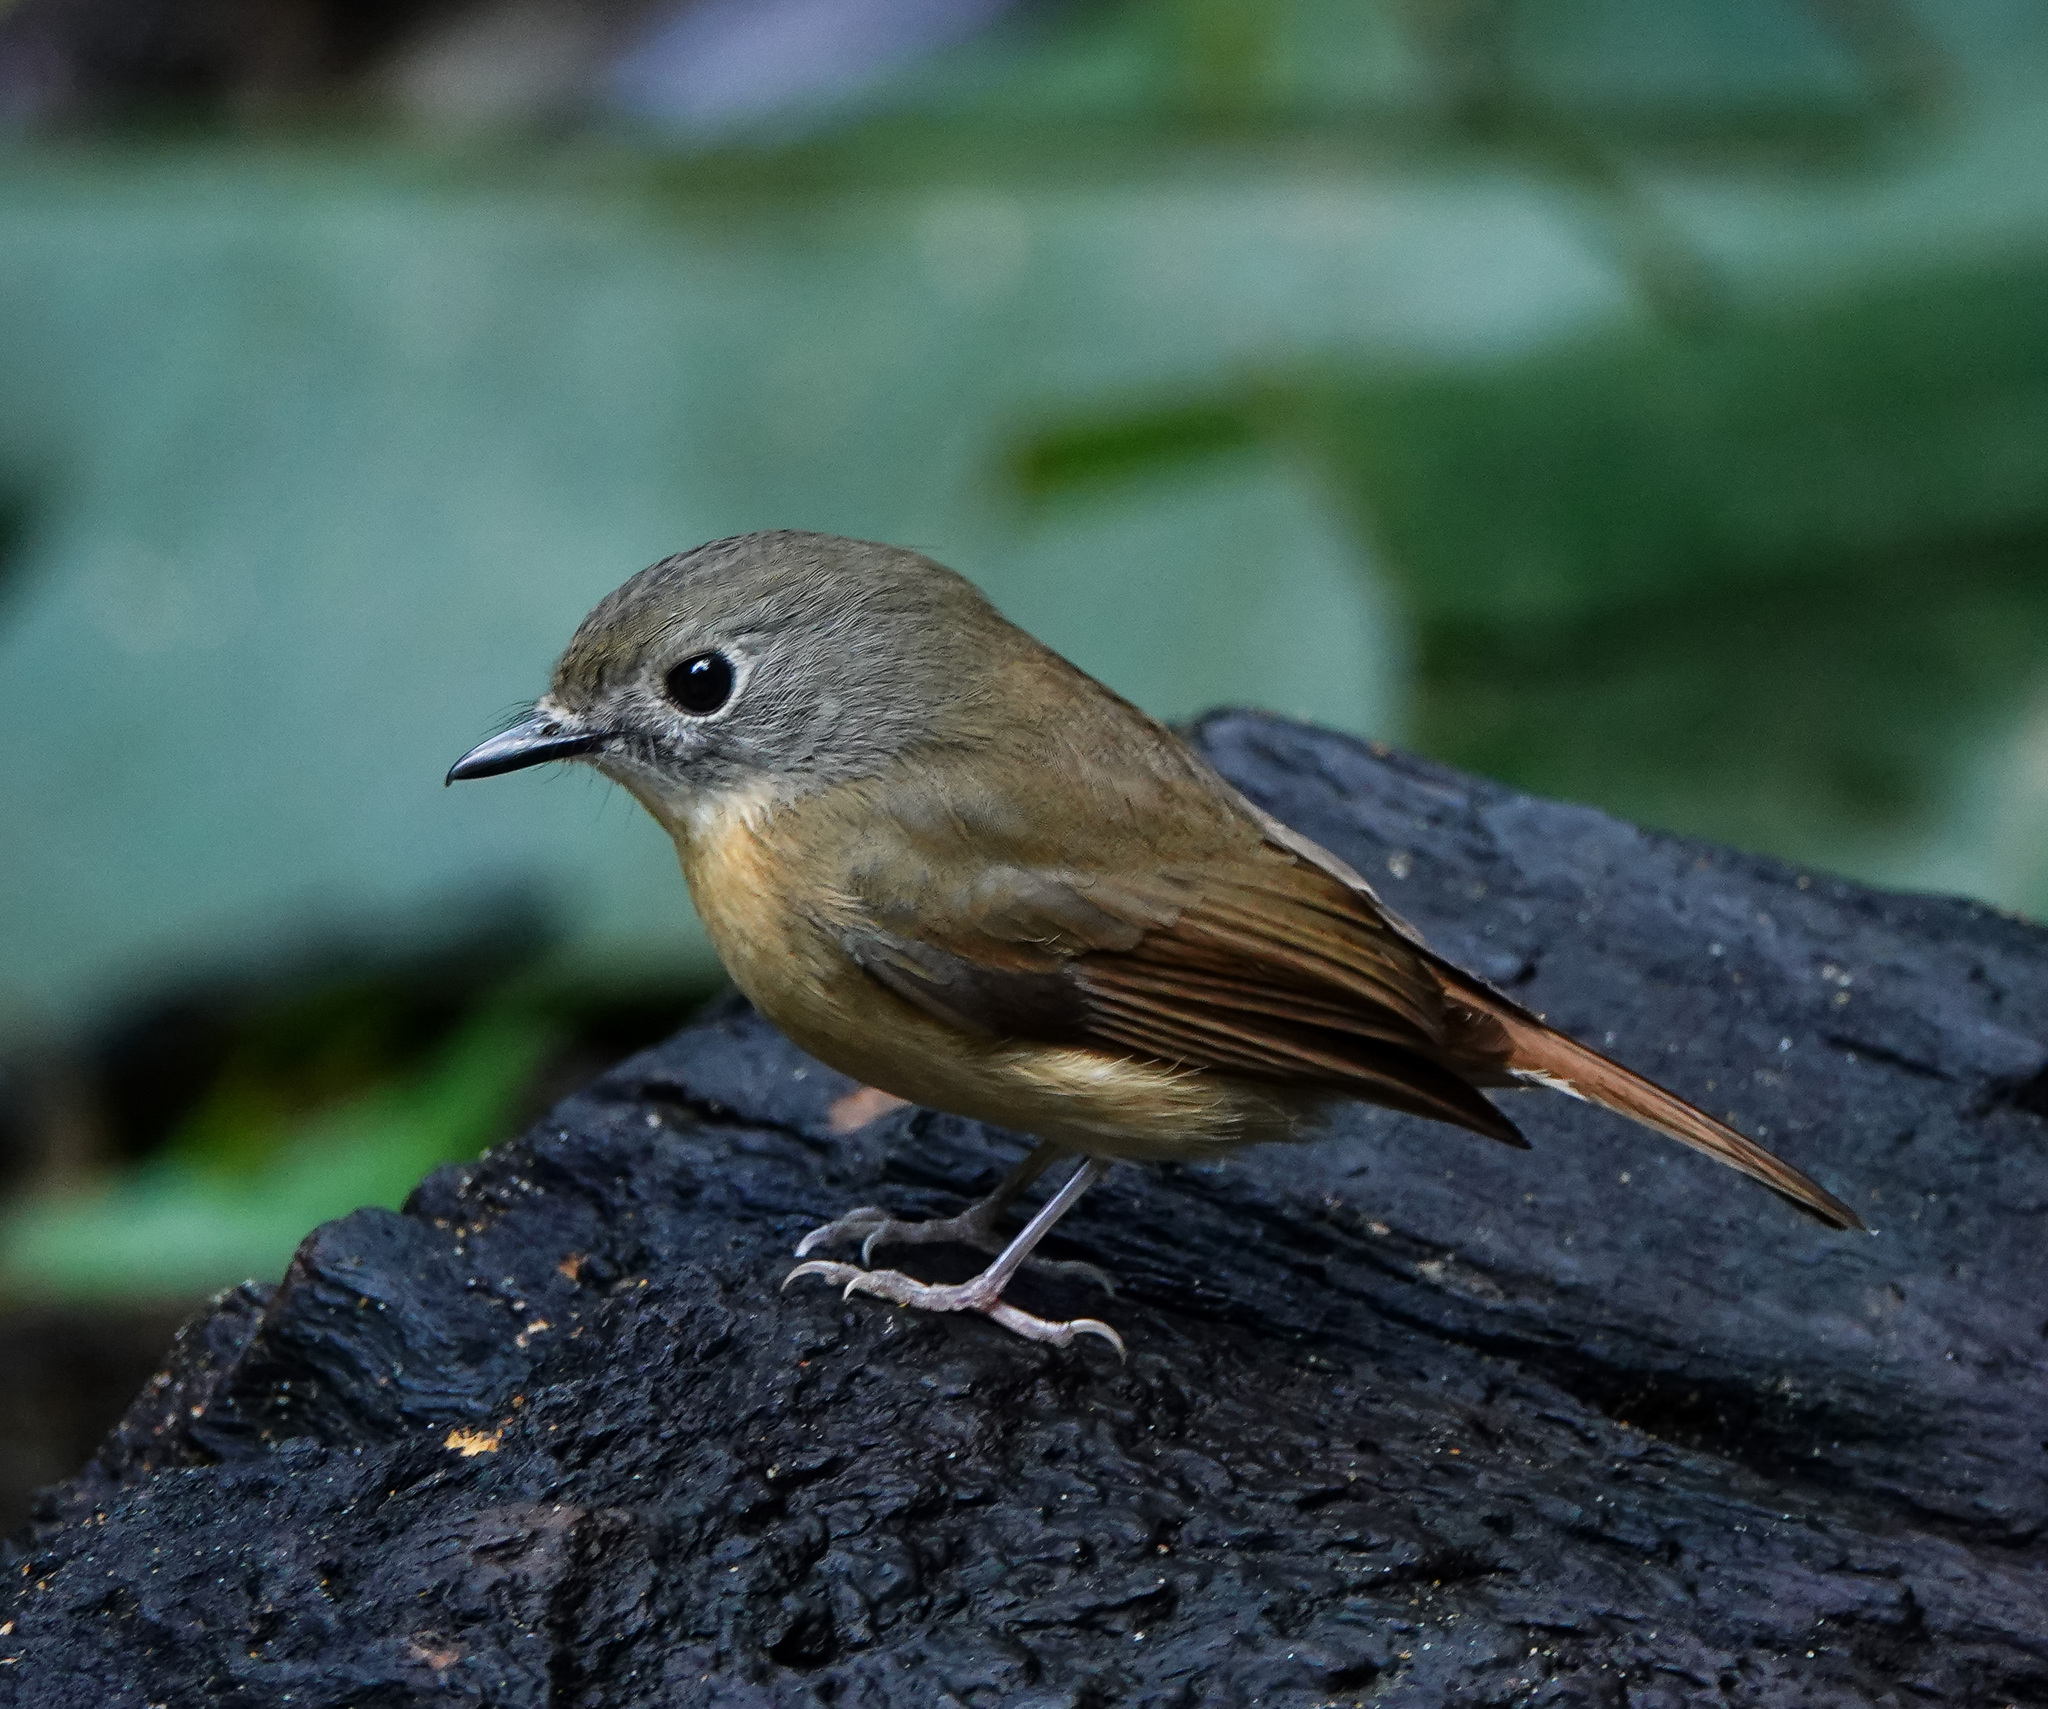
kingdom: Animalia
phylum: Chordata
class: Aves
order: Passeriformes
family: Muscicapidae
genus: Cyornis
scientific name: Cyornis poliogenys
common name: Pale-chinned blue flycatcher
